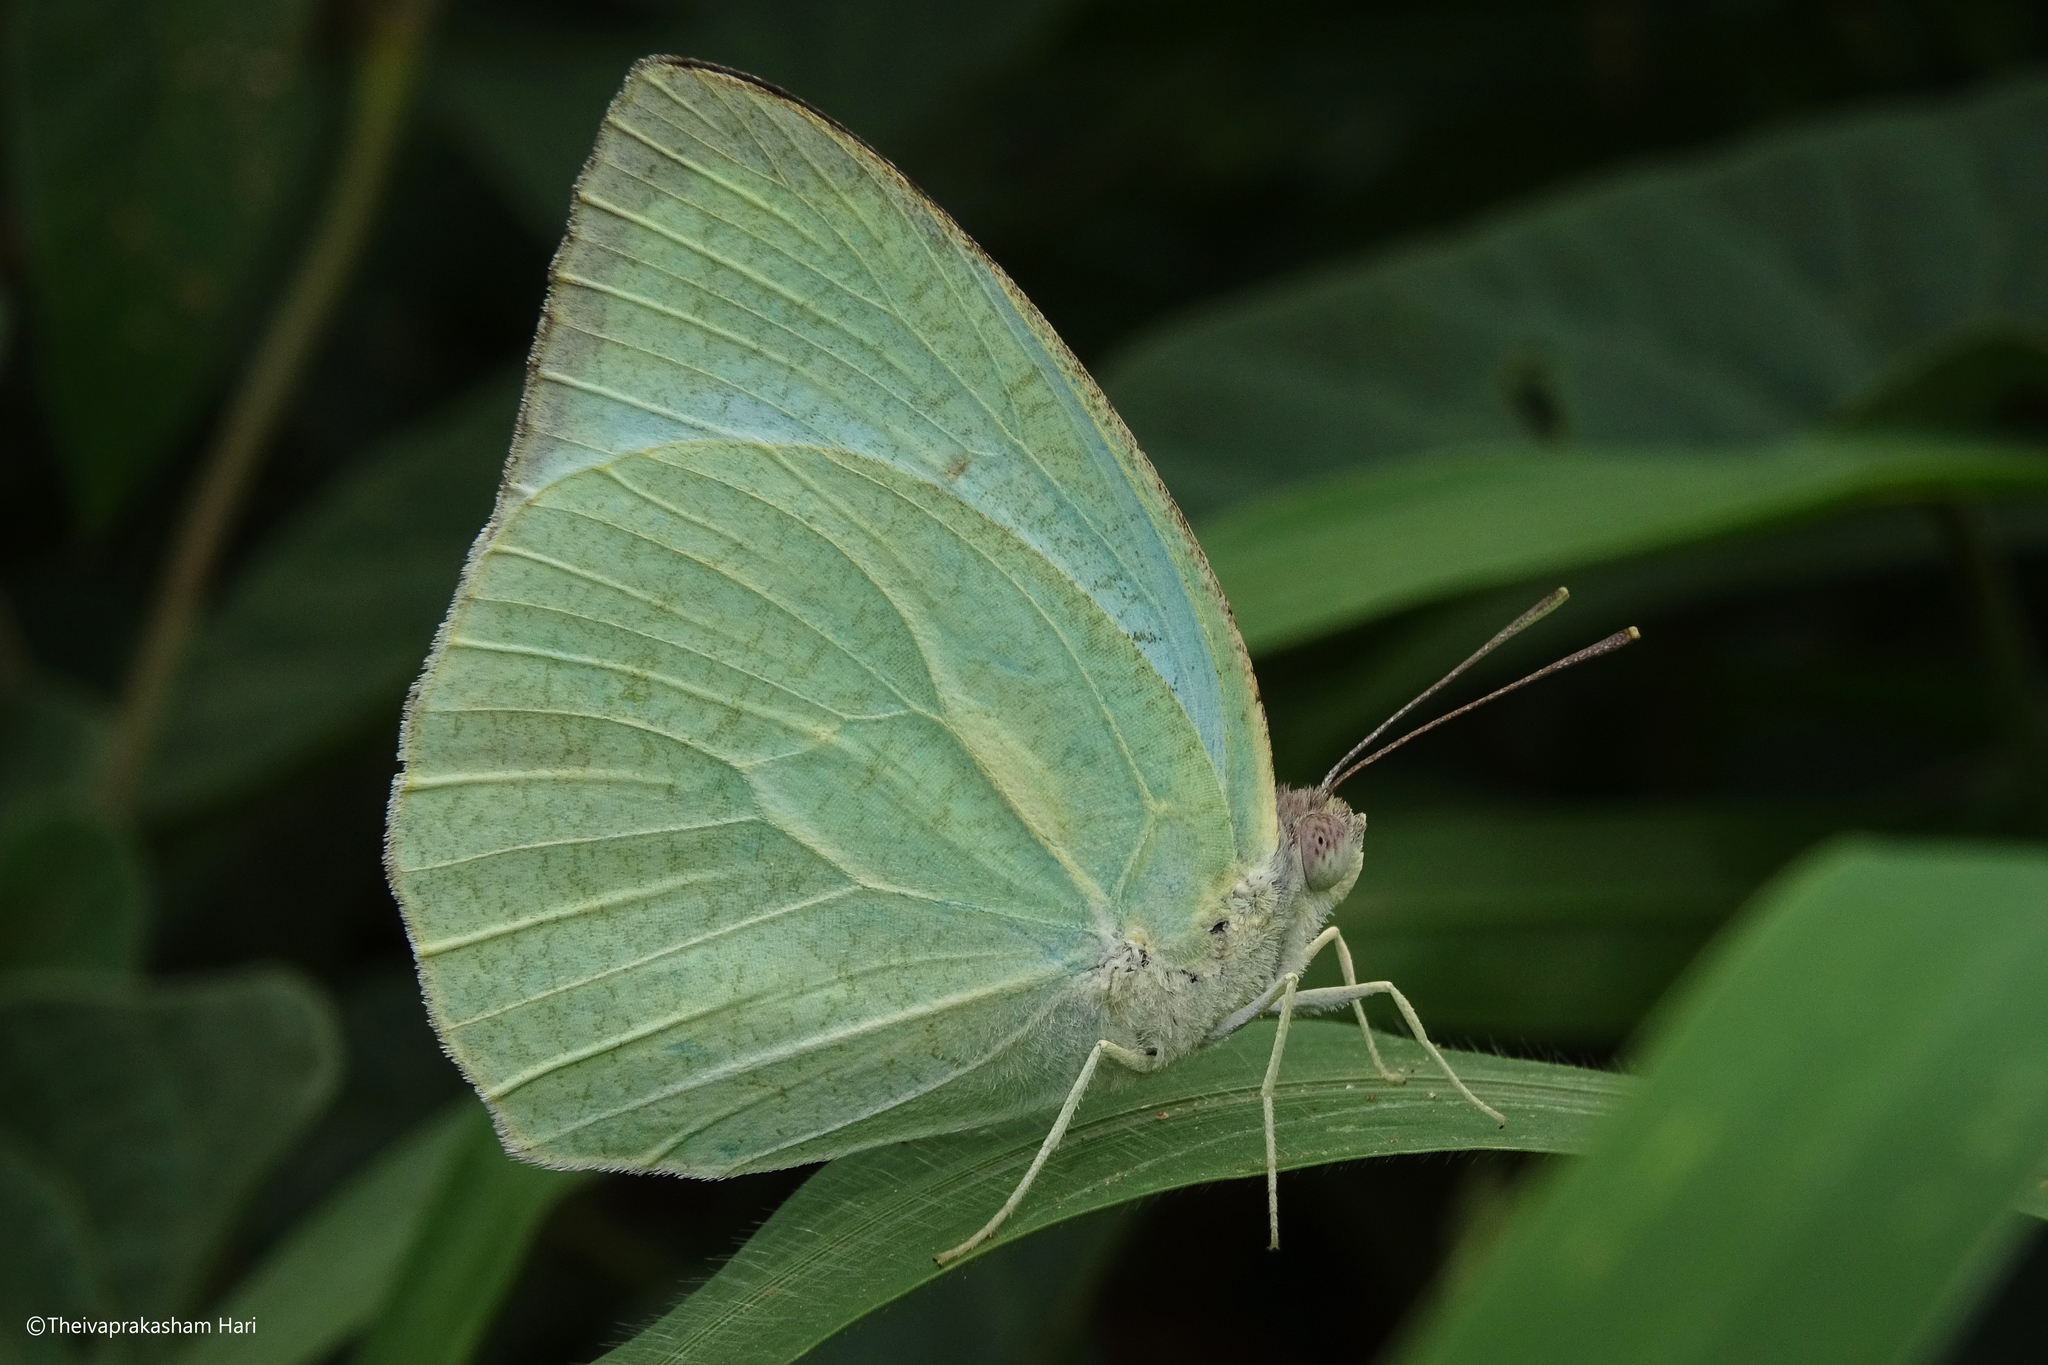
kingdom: Animalia
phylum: Arthropoda
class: Insecta
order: Lepidoptera
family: Pieridae
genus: Catopsilia
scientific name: Catopsilia pyranthe
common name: Mottled emigrant
